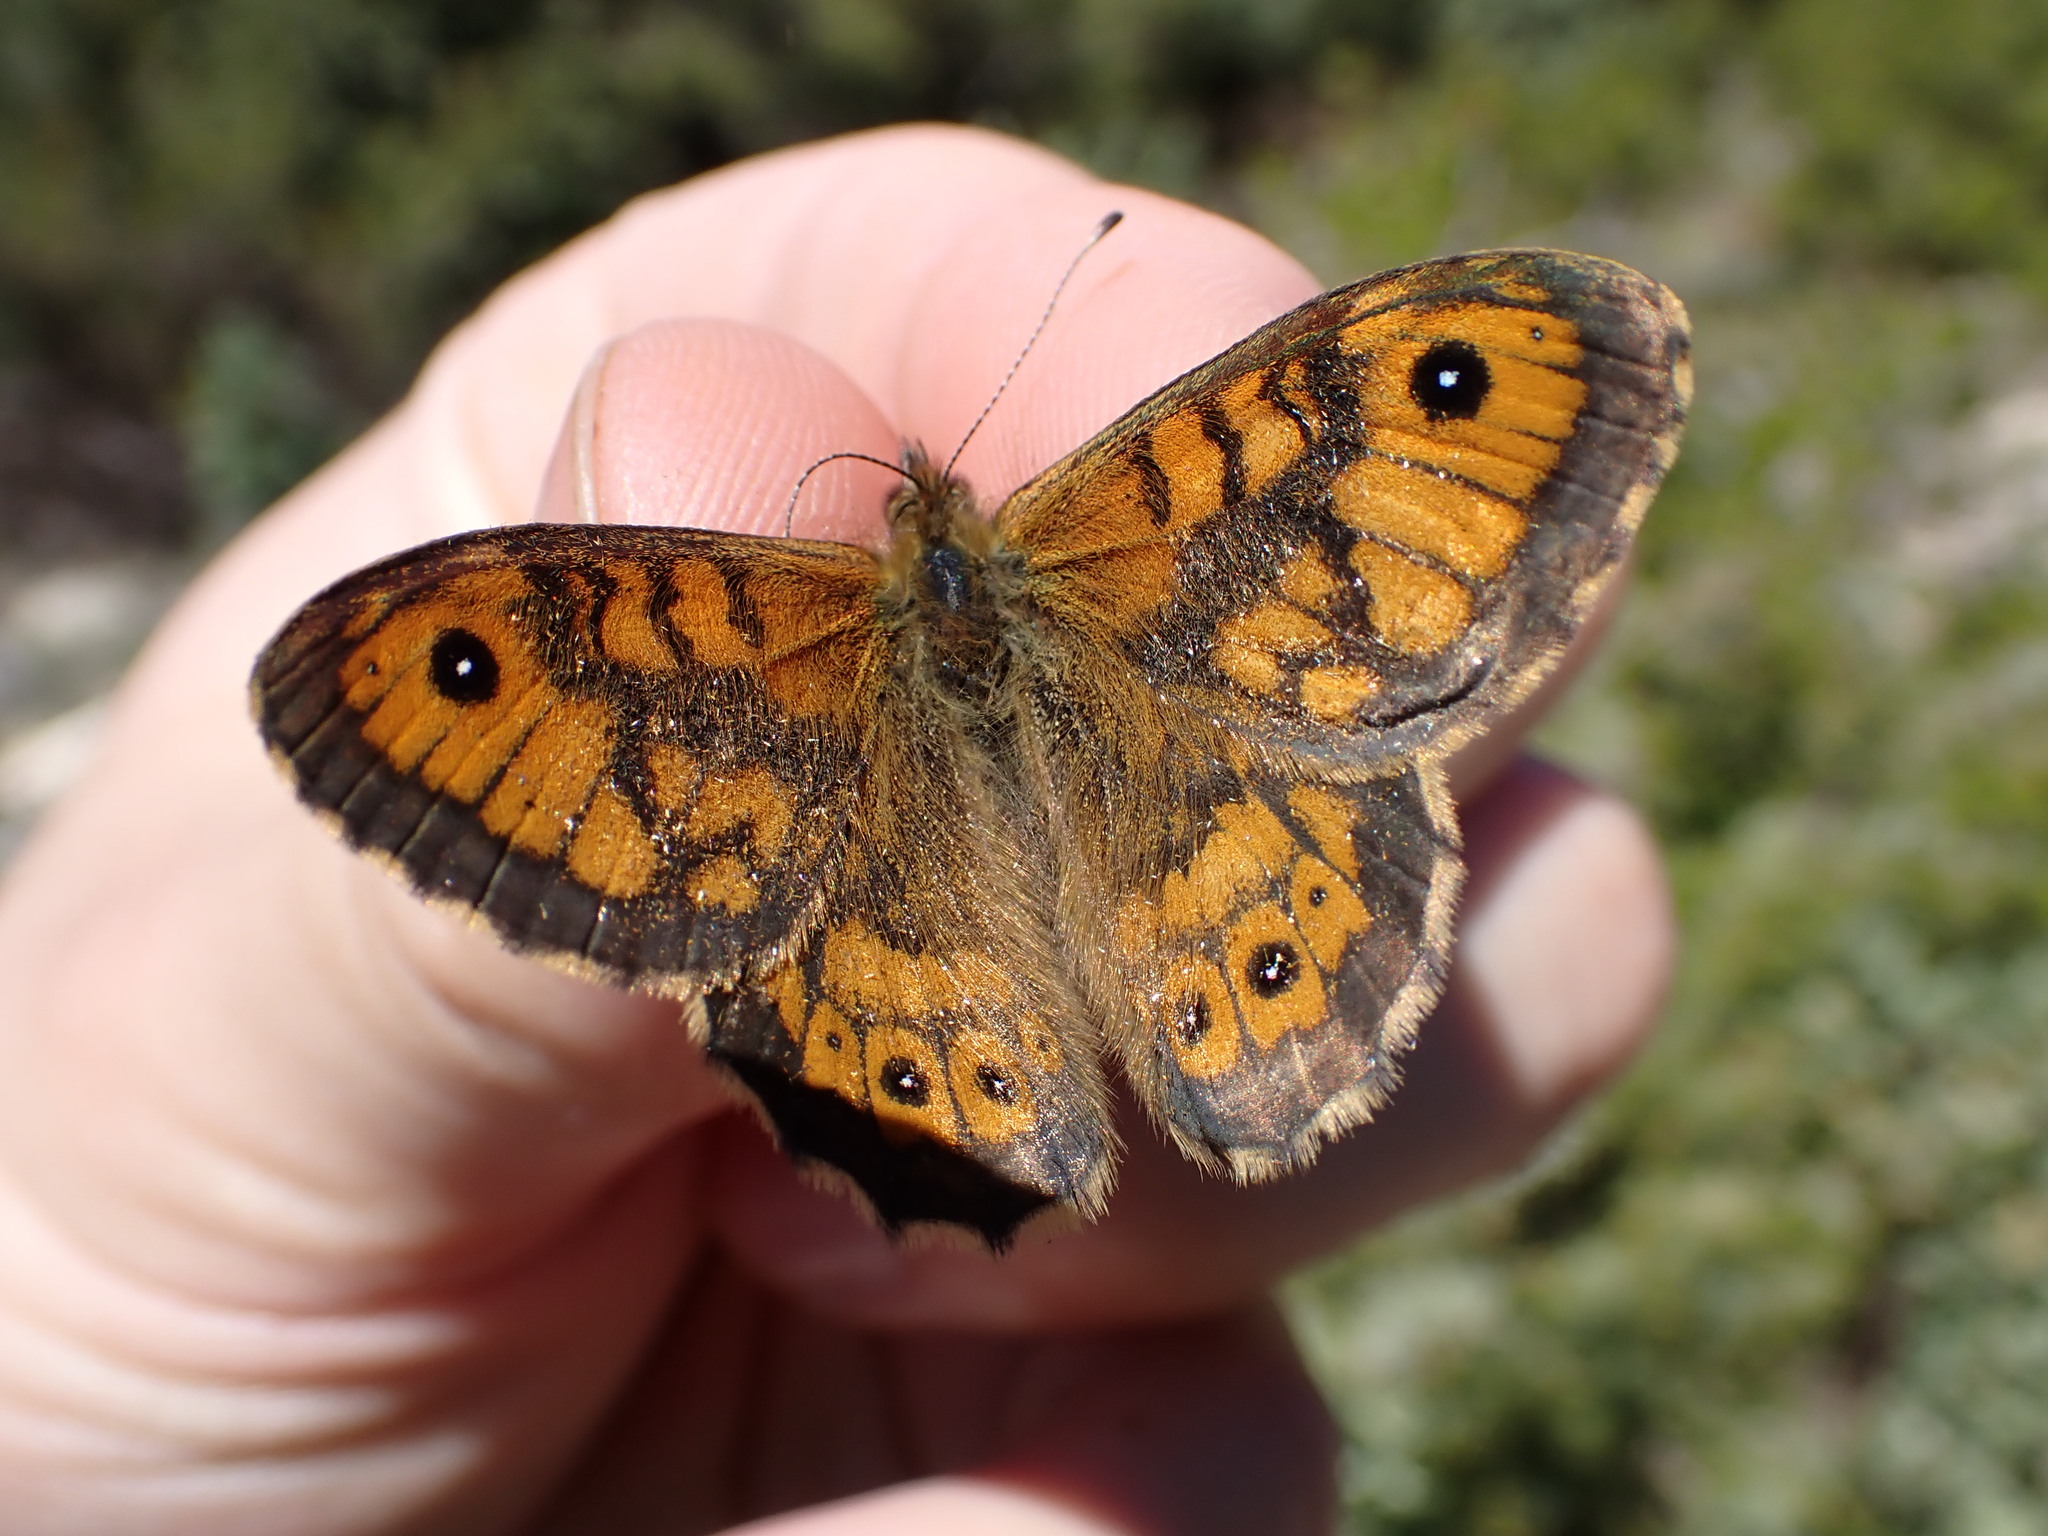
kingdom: Animalia
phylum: Arthropoda
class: Insecta
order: Lepidoptera
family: Nymphalidae
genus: Pararge
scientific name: Pararge Lasiommata megera
